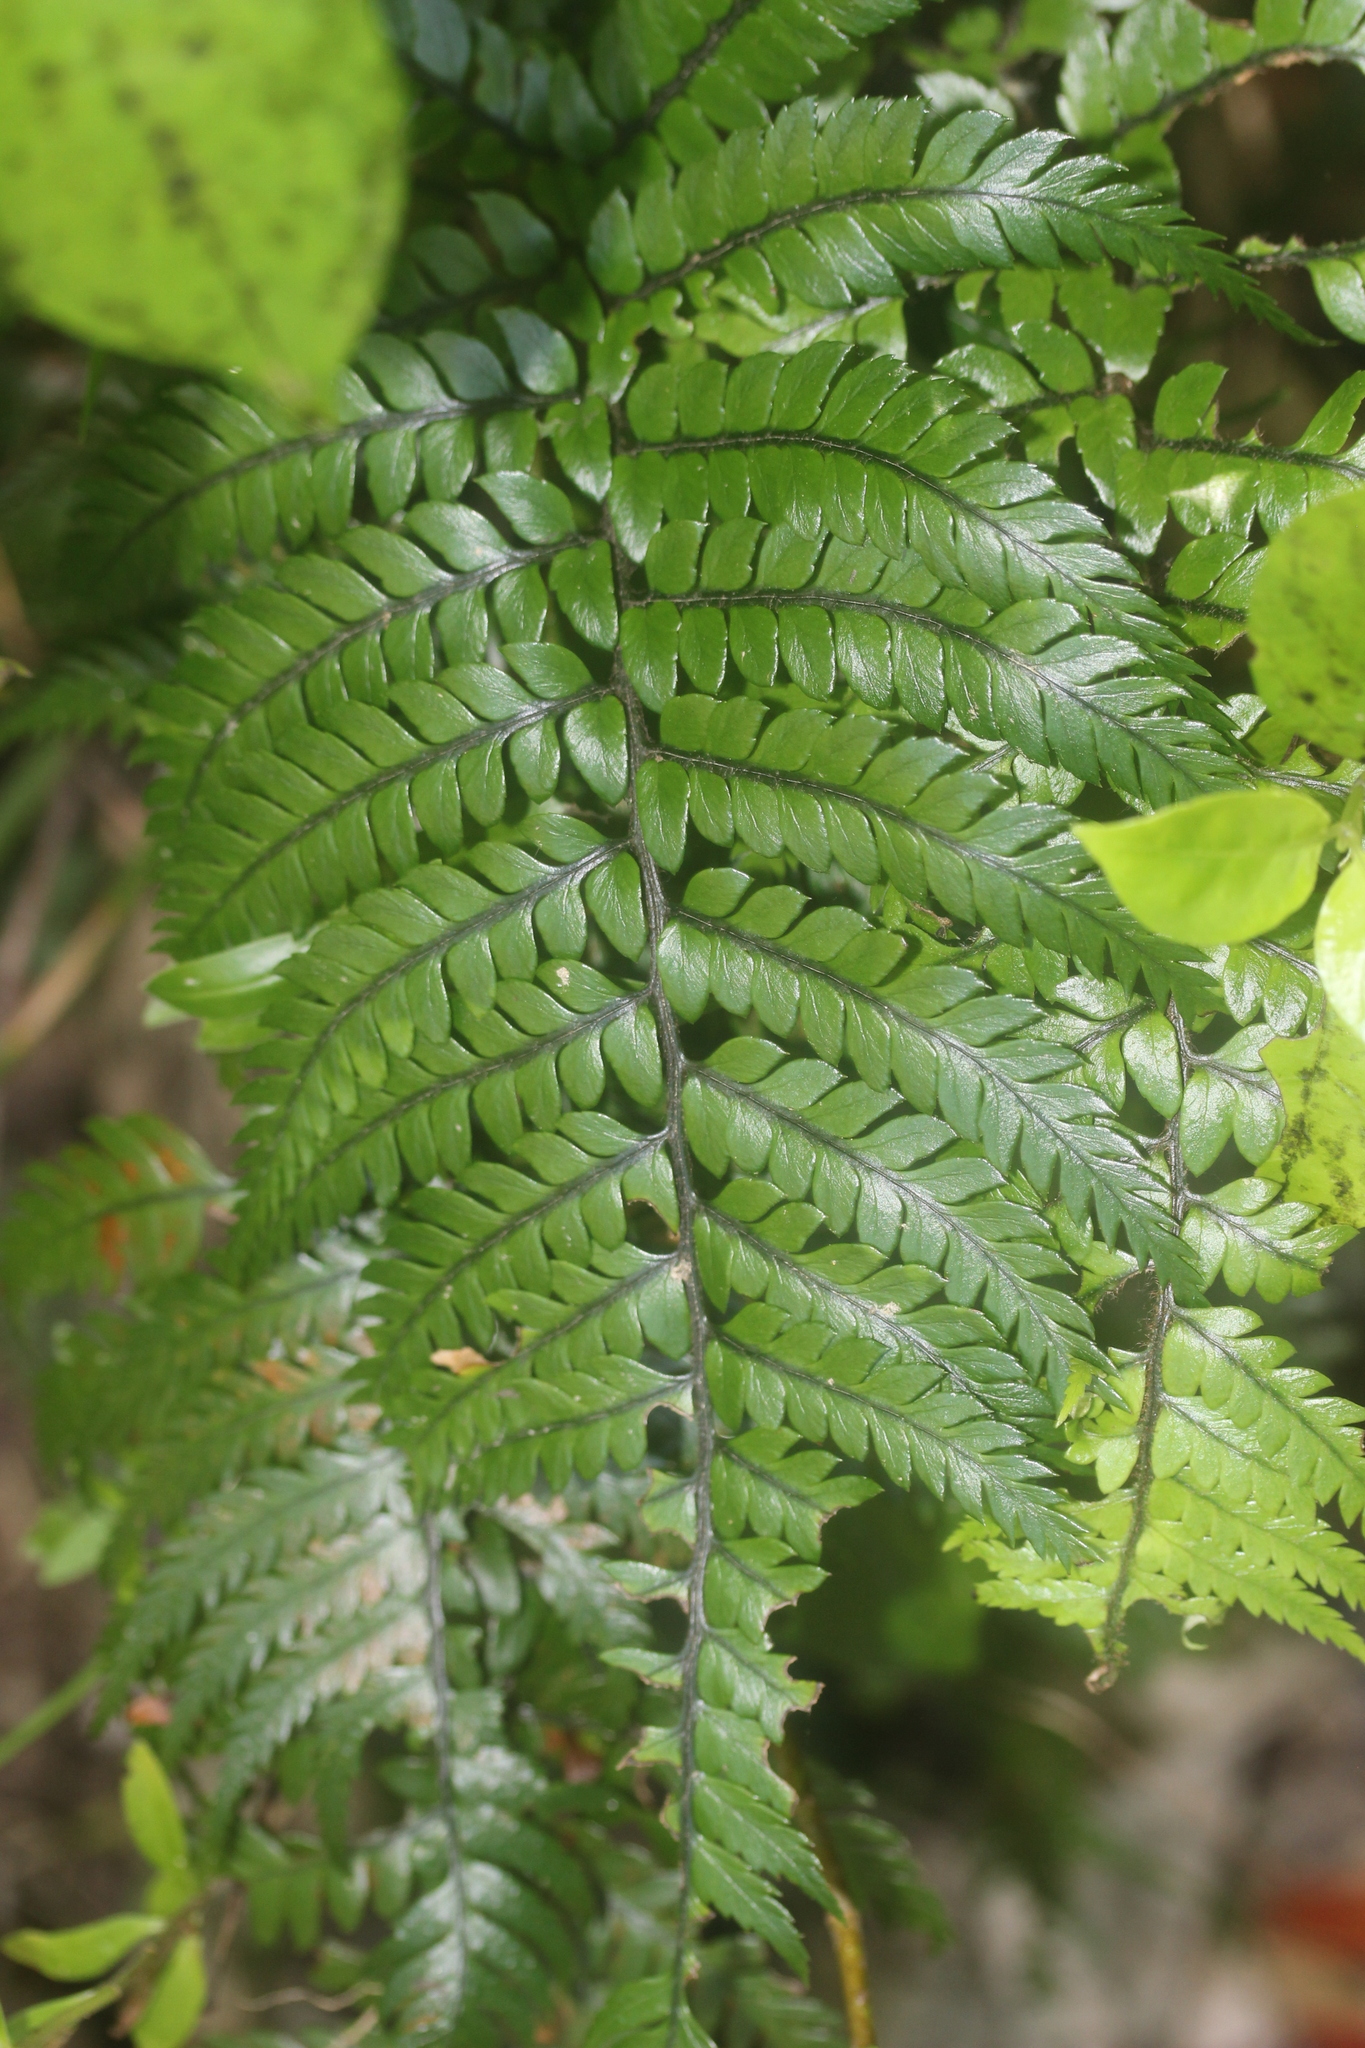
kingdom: Plantae
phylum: Tracheophyta
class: Polypodiopsida
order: Polypodiales
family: Dryopteridaceae
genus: Polystichum
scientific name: Polystichum wawranum
